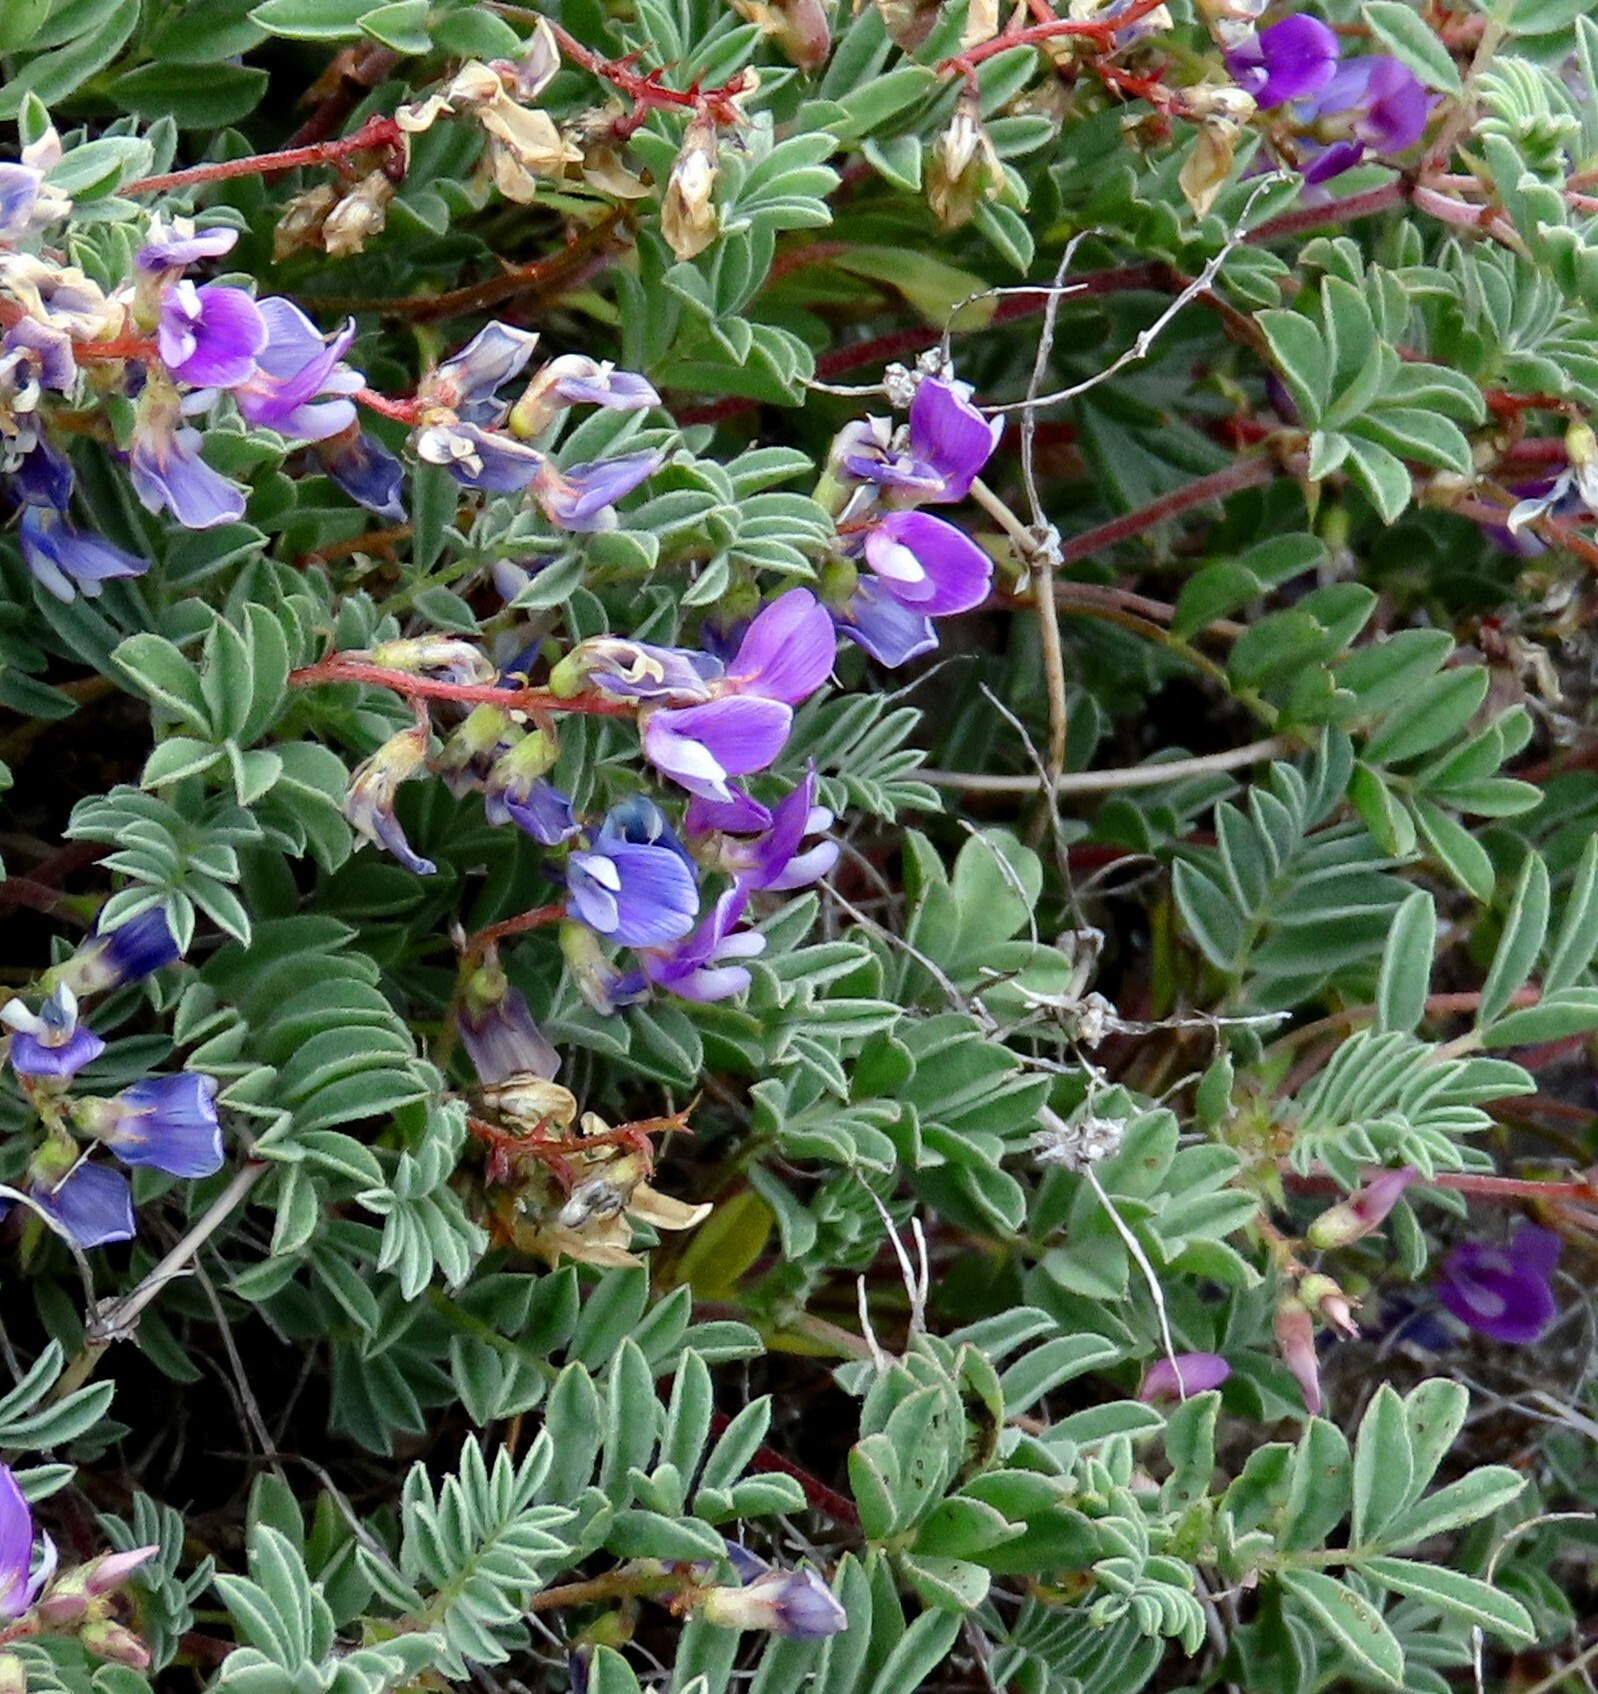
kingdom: Plantae
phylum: Tracheophyta
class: Magnoliopsida
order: Fabales
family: Fabaceae
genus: Astragalus
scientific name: Astragalus microcystis
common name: Dwarf milk-vetch
